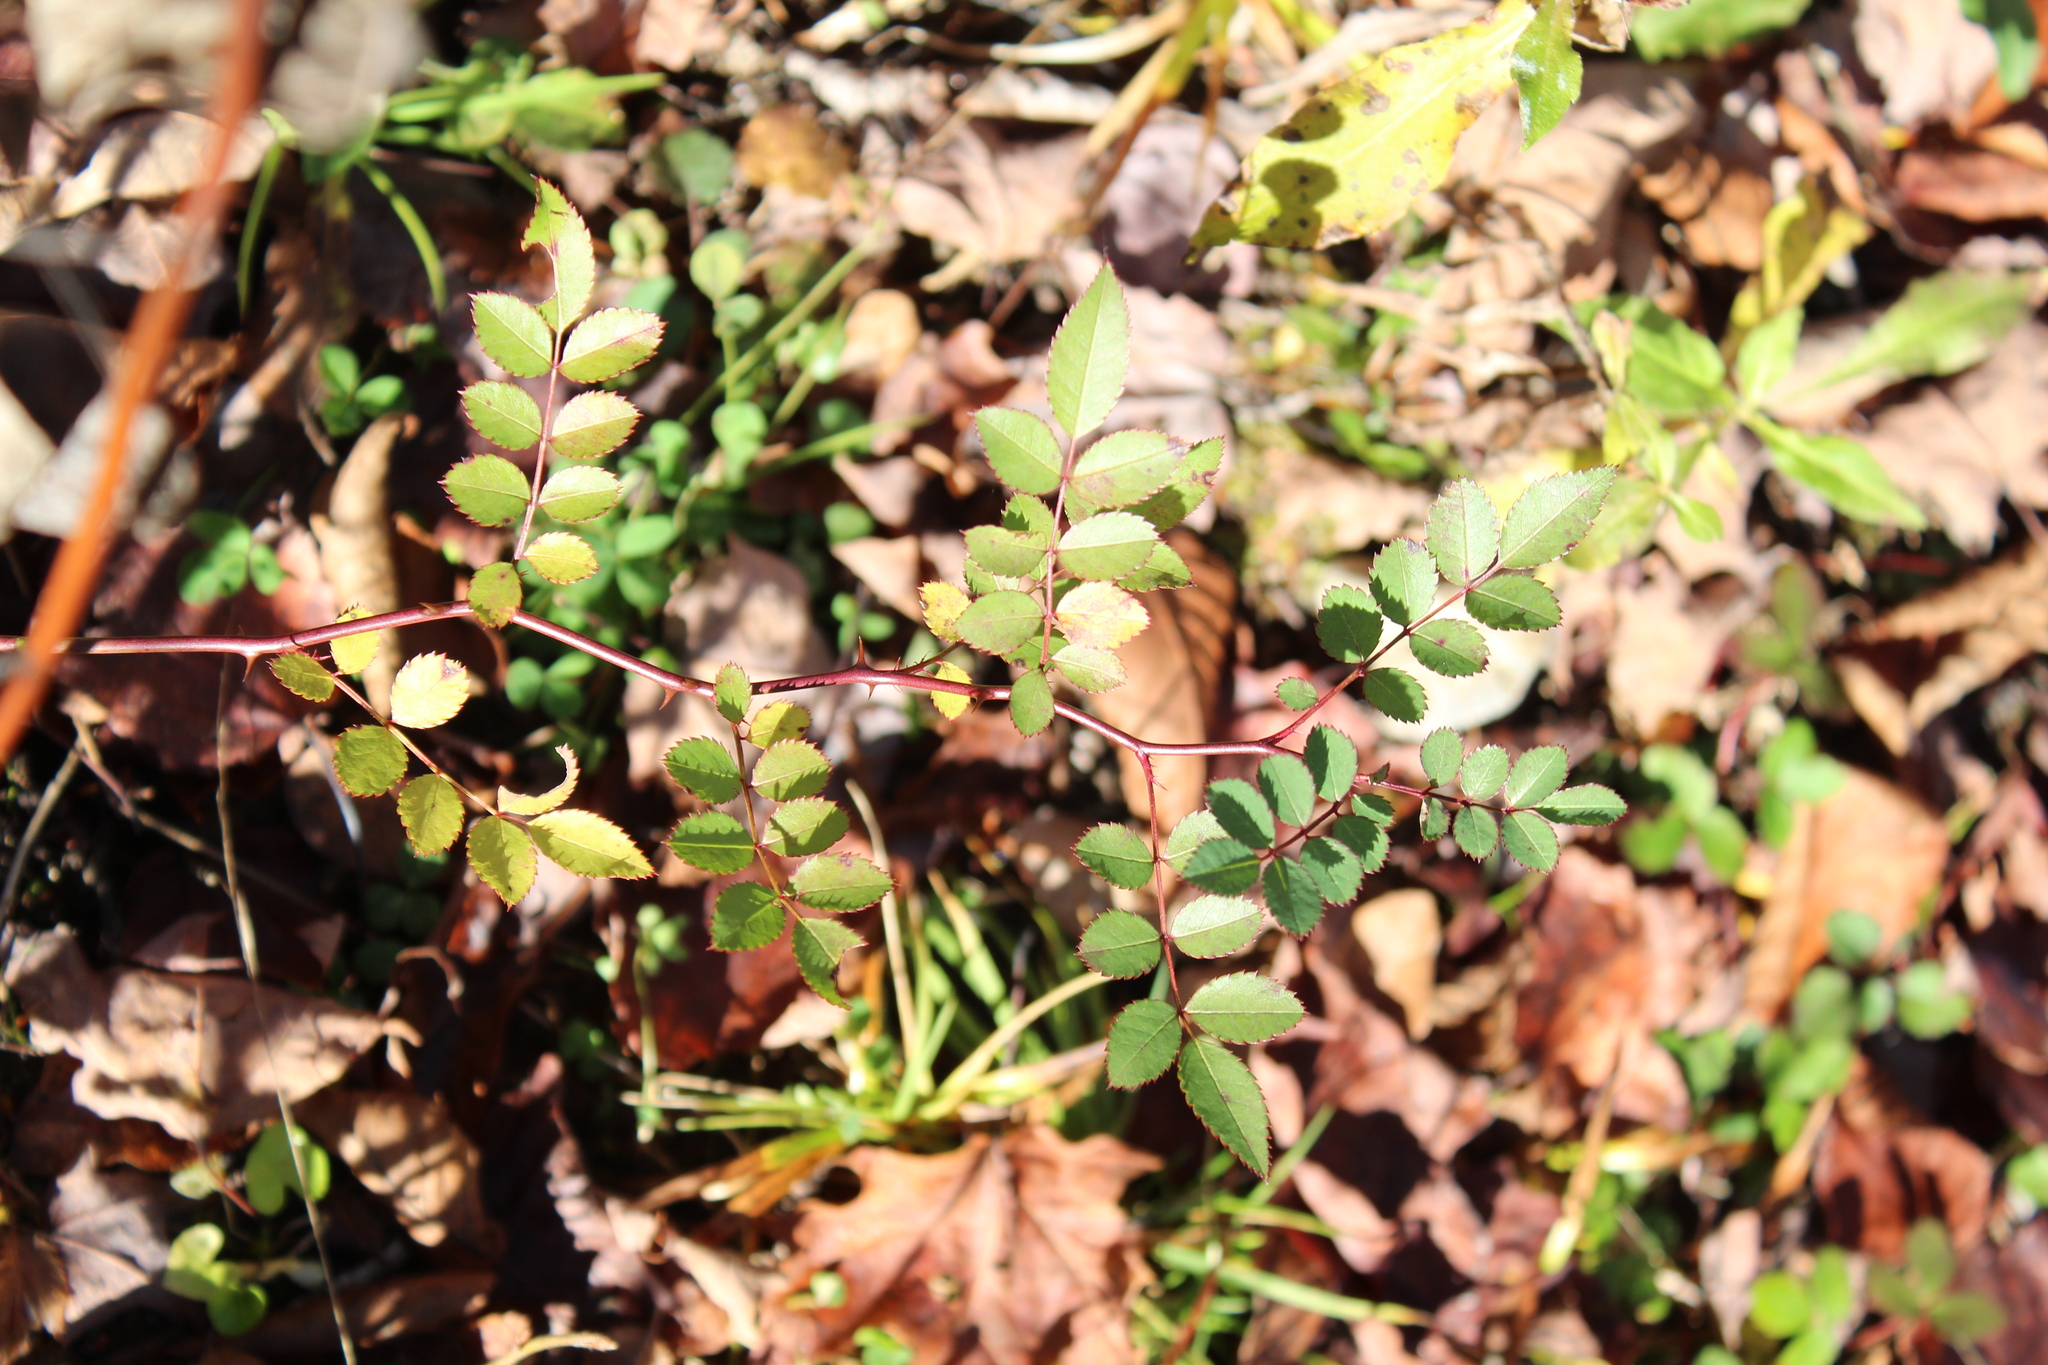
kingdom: Plantae
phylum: Tracheophyta
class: Magnoliopsida
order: Rosales
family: Rosaceae
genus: Rosa
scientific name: Rosa multiflora
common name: Multiflora rose
